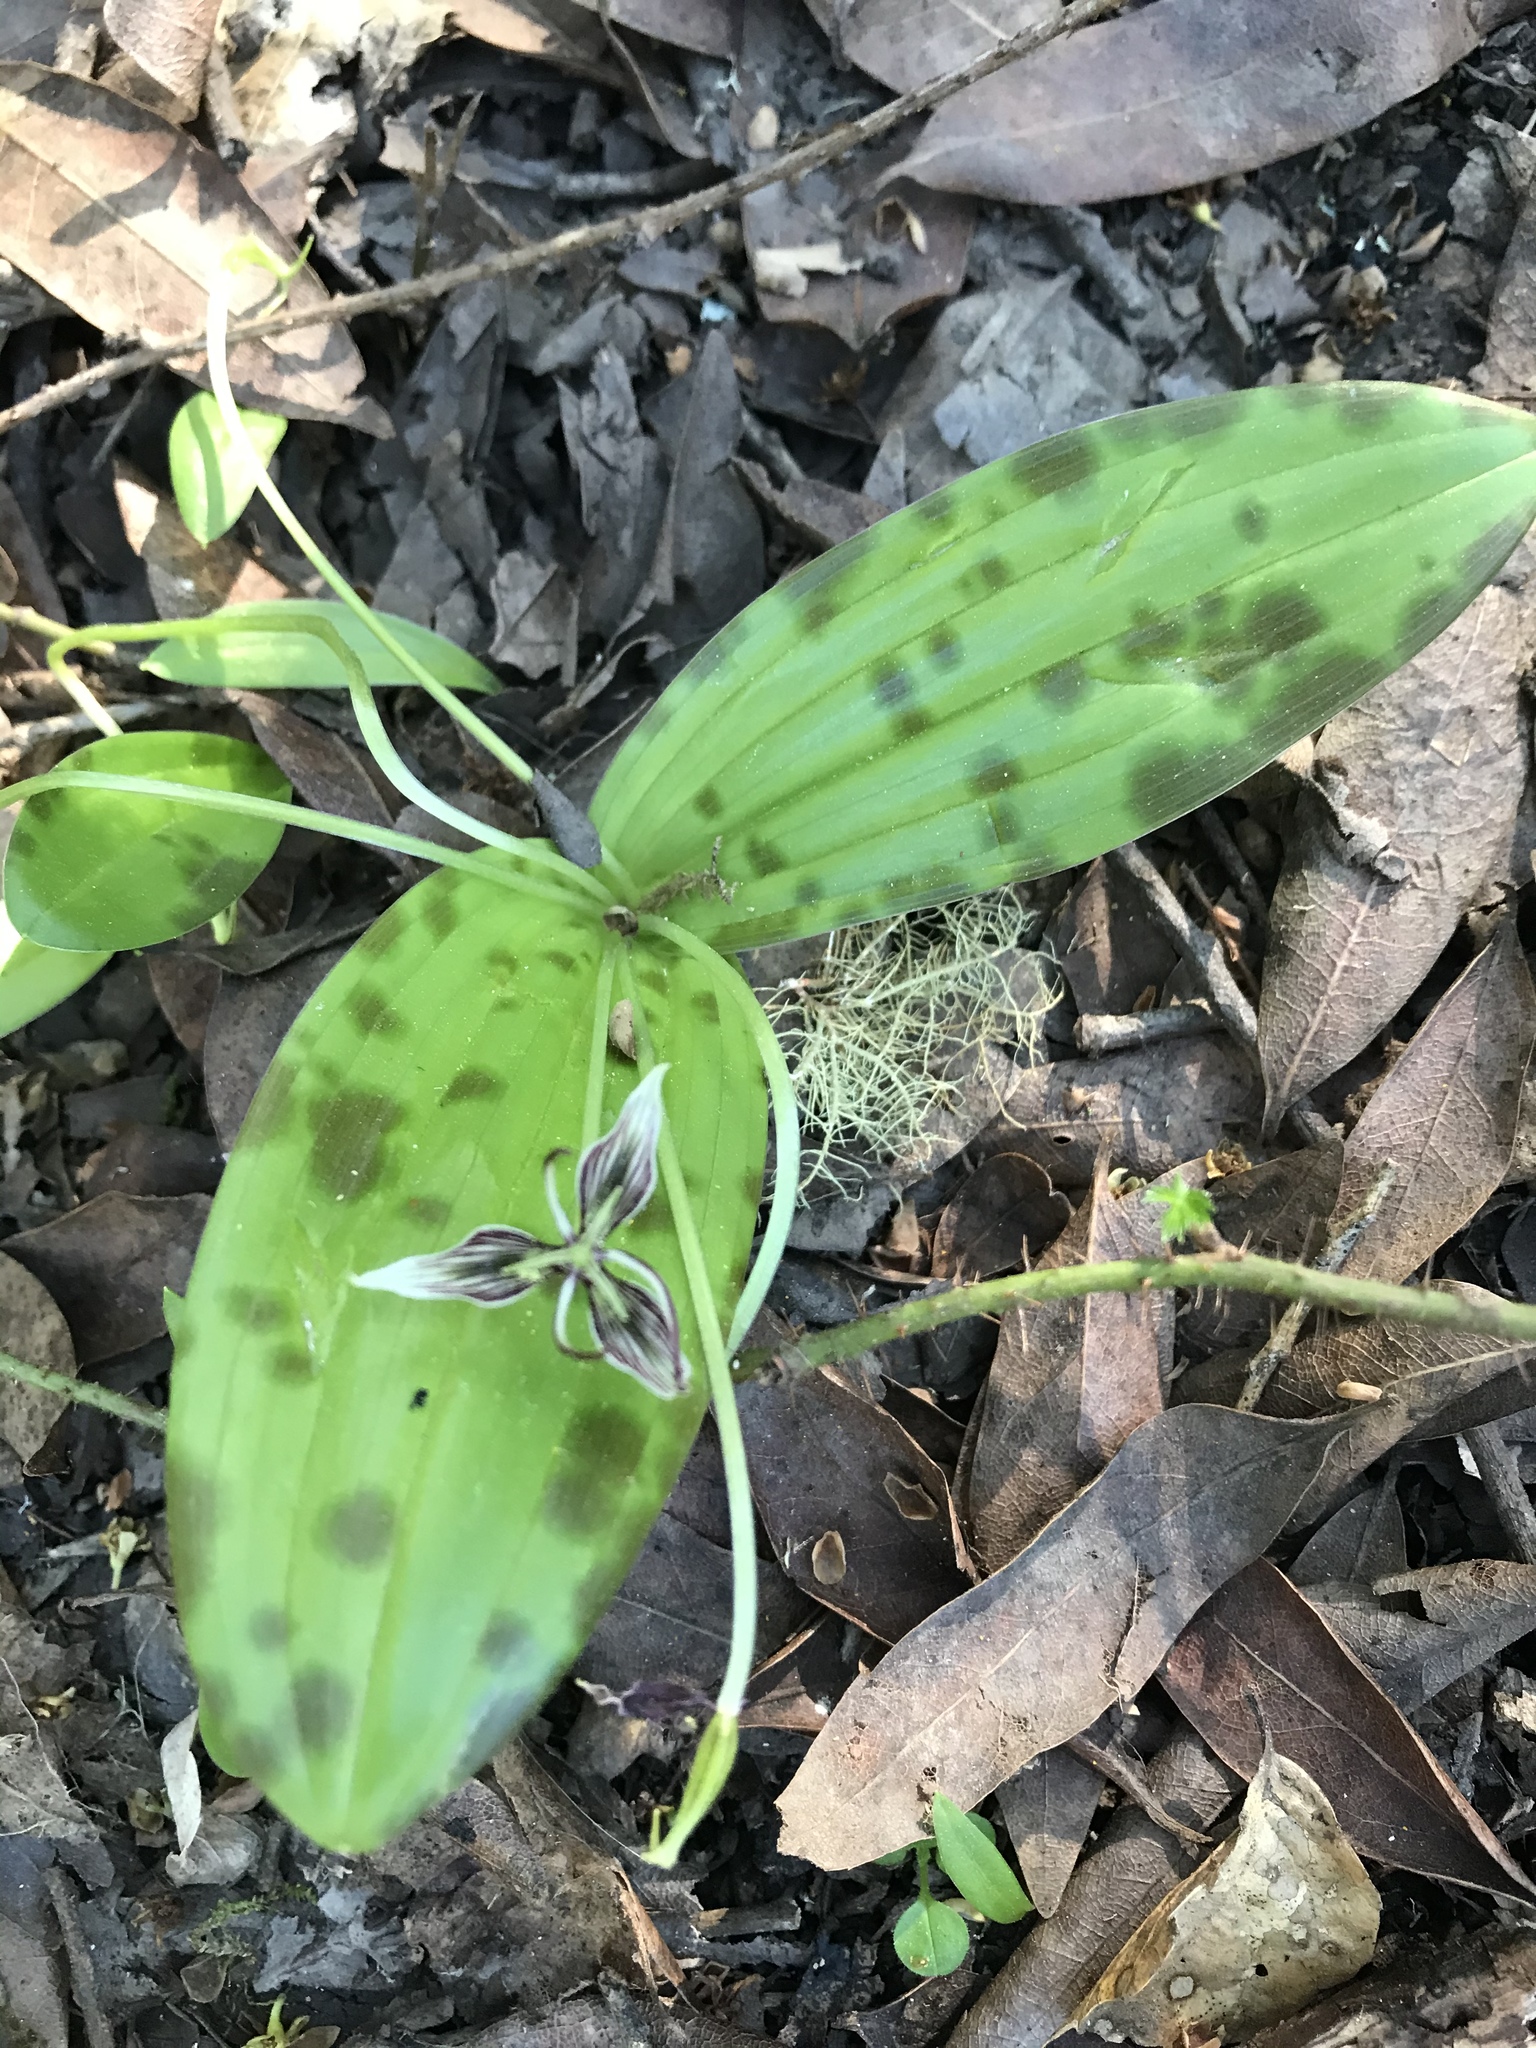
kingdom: Plantae
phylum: Tracheophyta
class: Liliopsida
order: Liliales
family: Liliaceae
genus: Scoliopus
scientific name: Scoliopus bigelovii
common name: Foetid adder's-tongue
